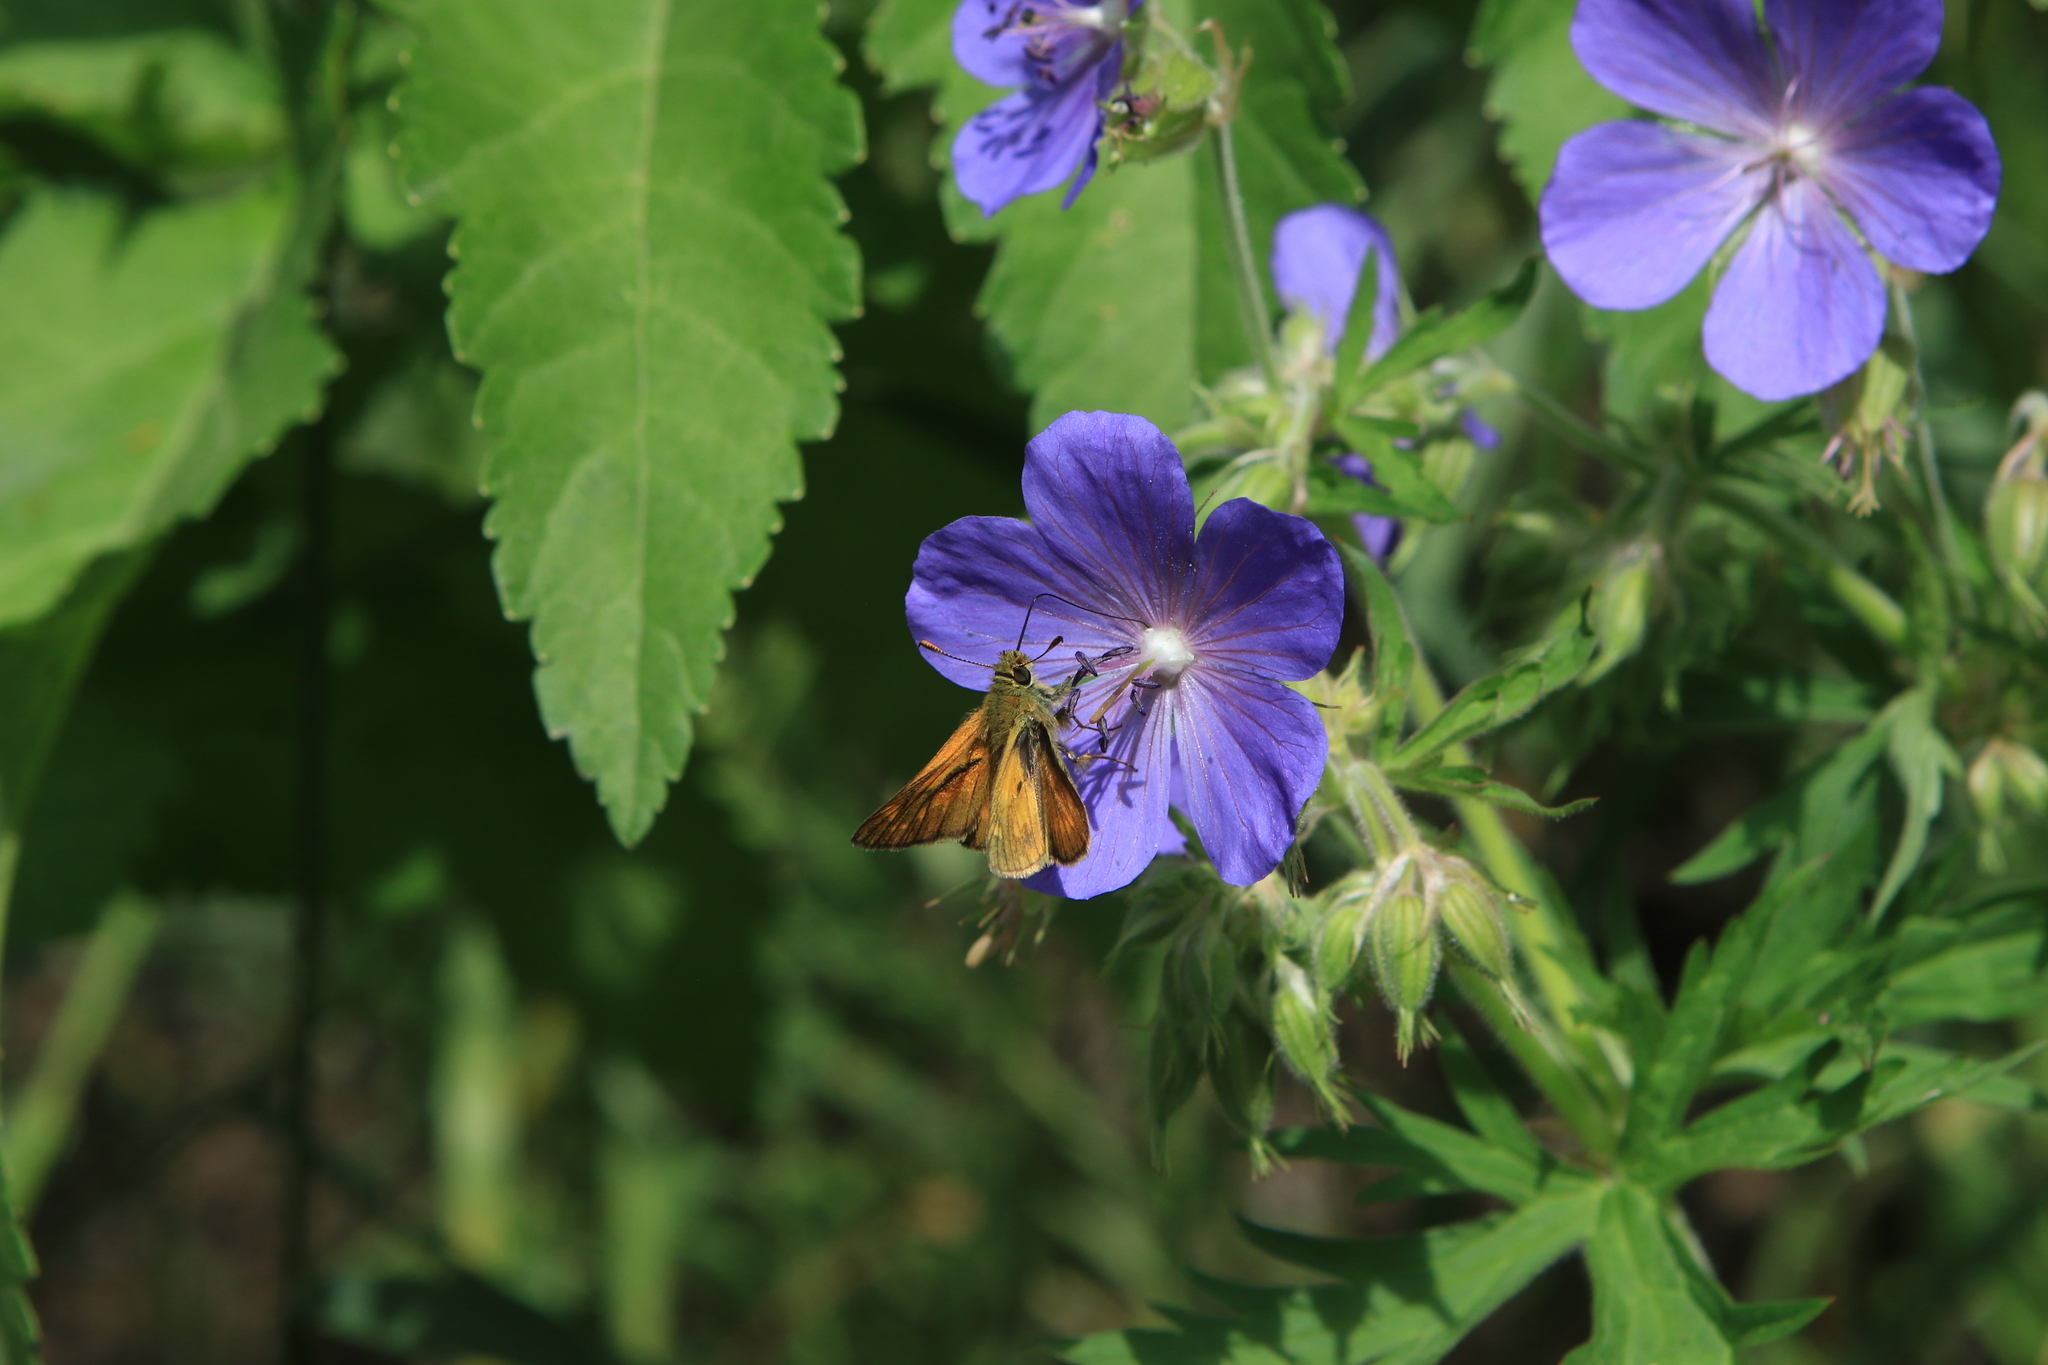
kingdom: Animalia
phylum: Arthropoda
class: Insecta
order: Lepidoptera
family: Hesperiidae
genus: Ochlodes
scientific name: Ochlodes venata
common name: Large skipper
